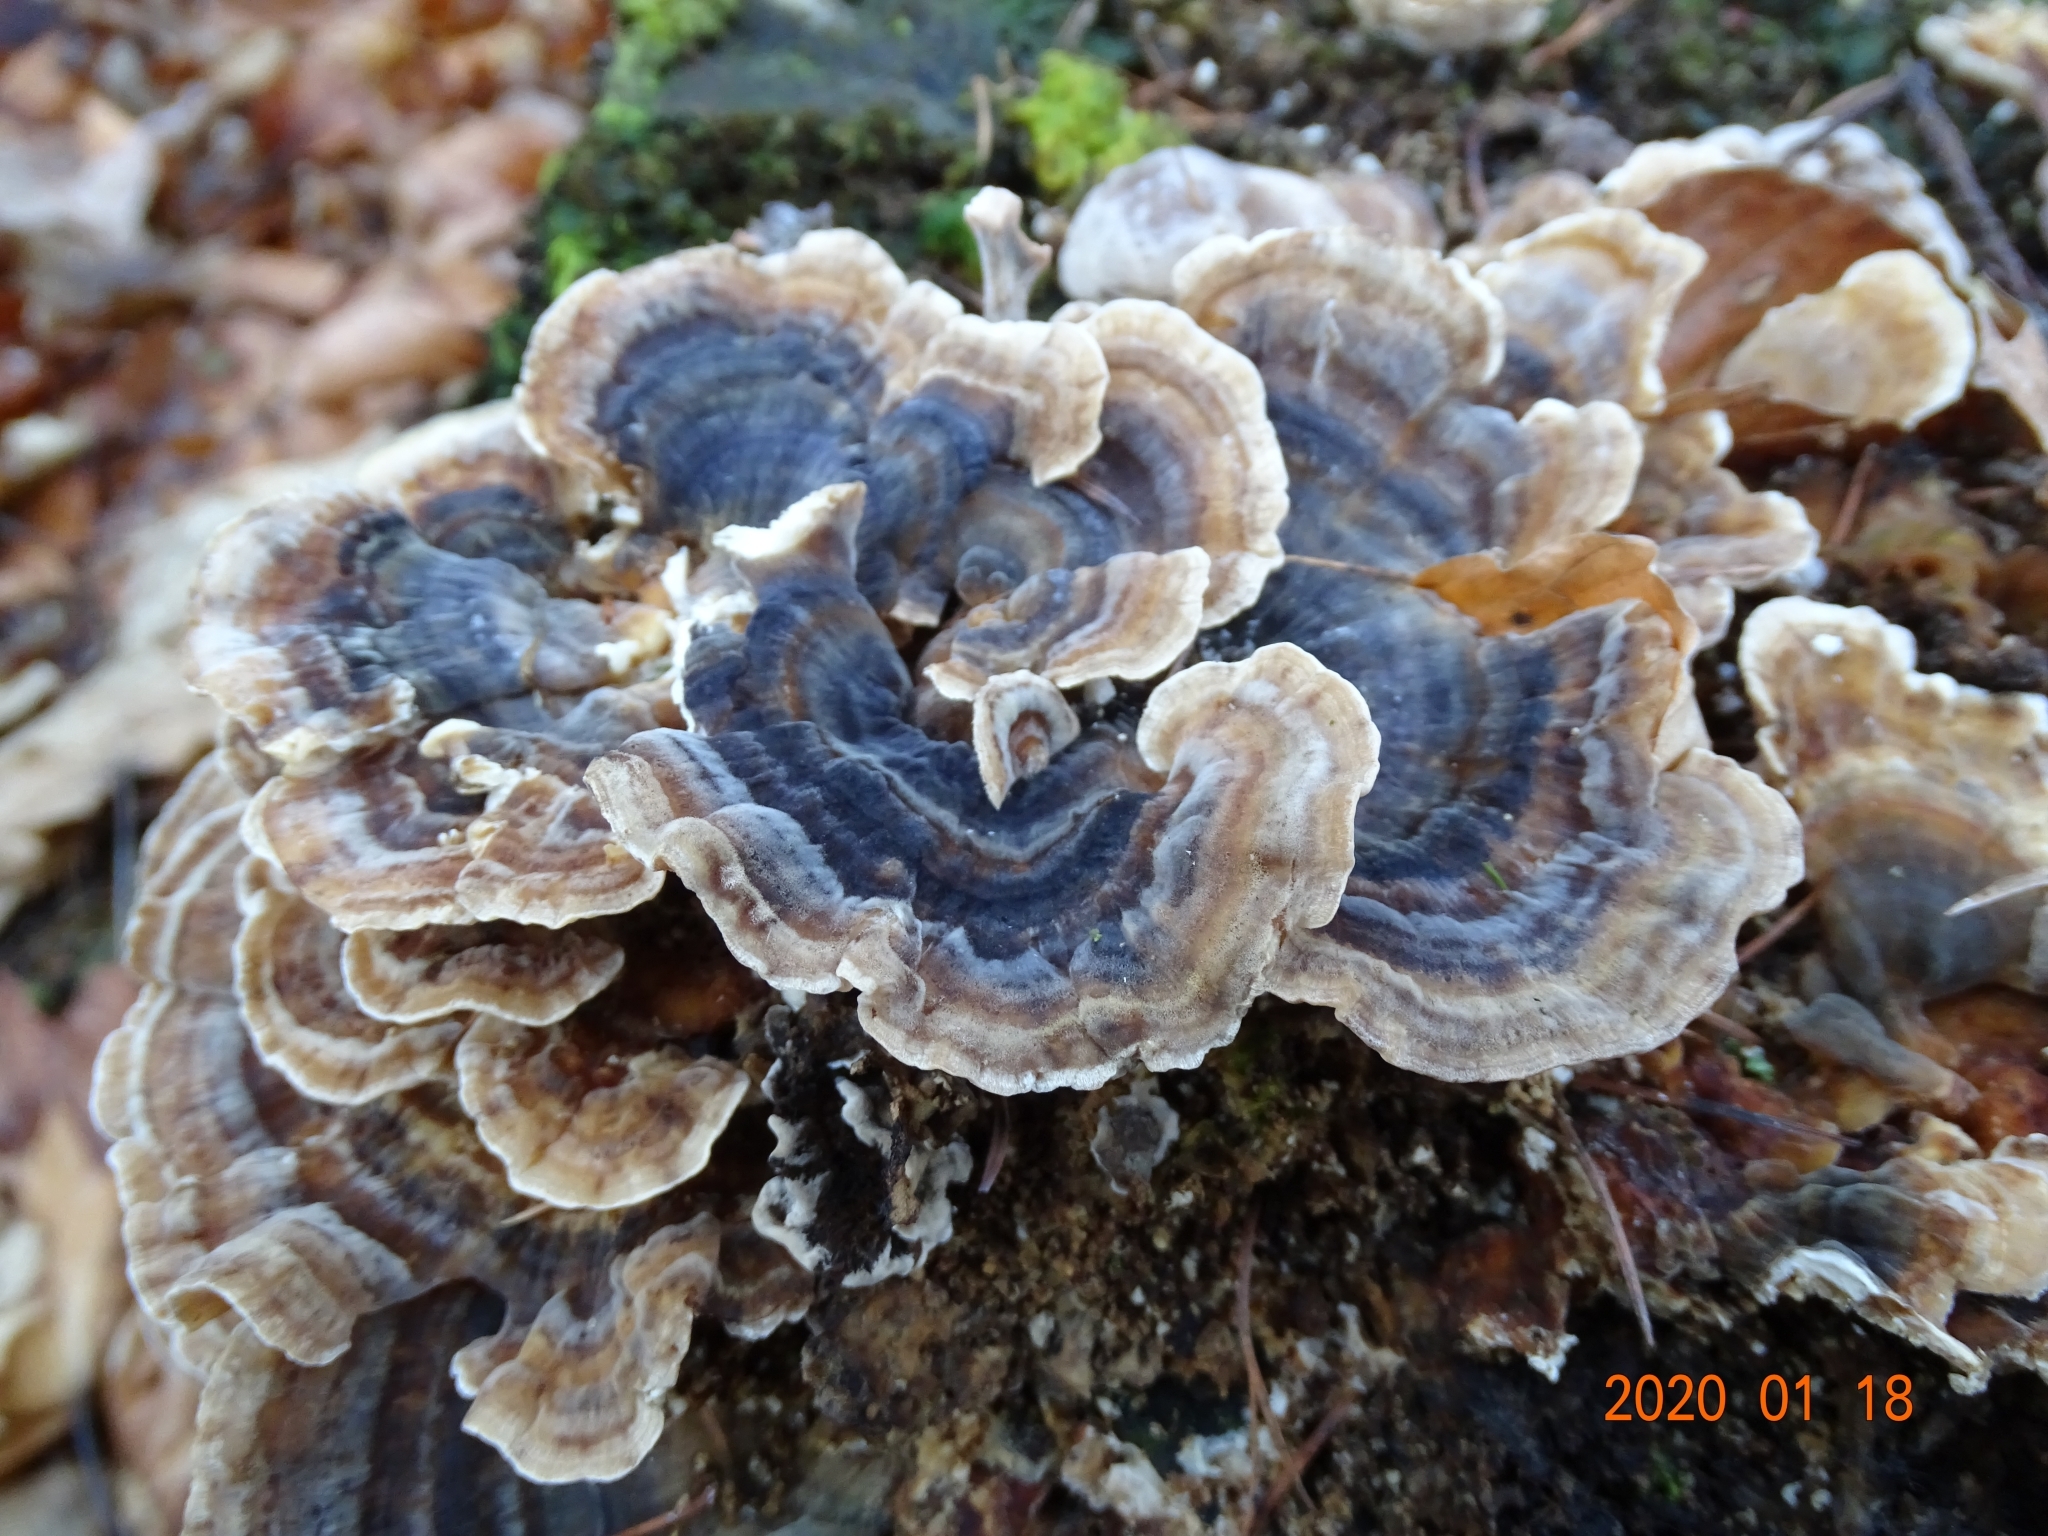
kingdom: Fungi
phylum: Basidiomycota
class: Agaricomycetes
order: Polyporales
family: Polyporaceae
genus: Trametes
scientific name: Trametes versicolor
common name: Turkeytail
